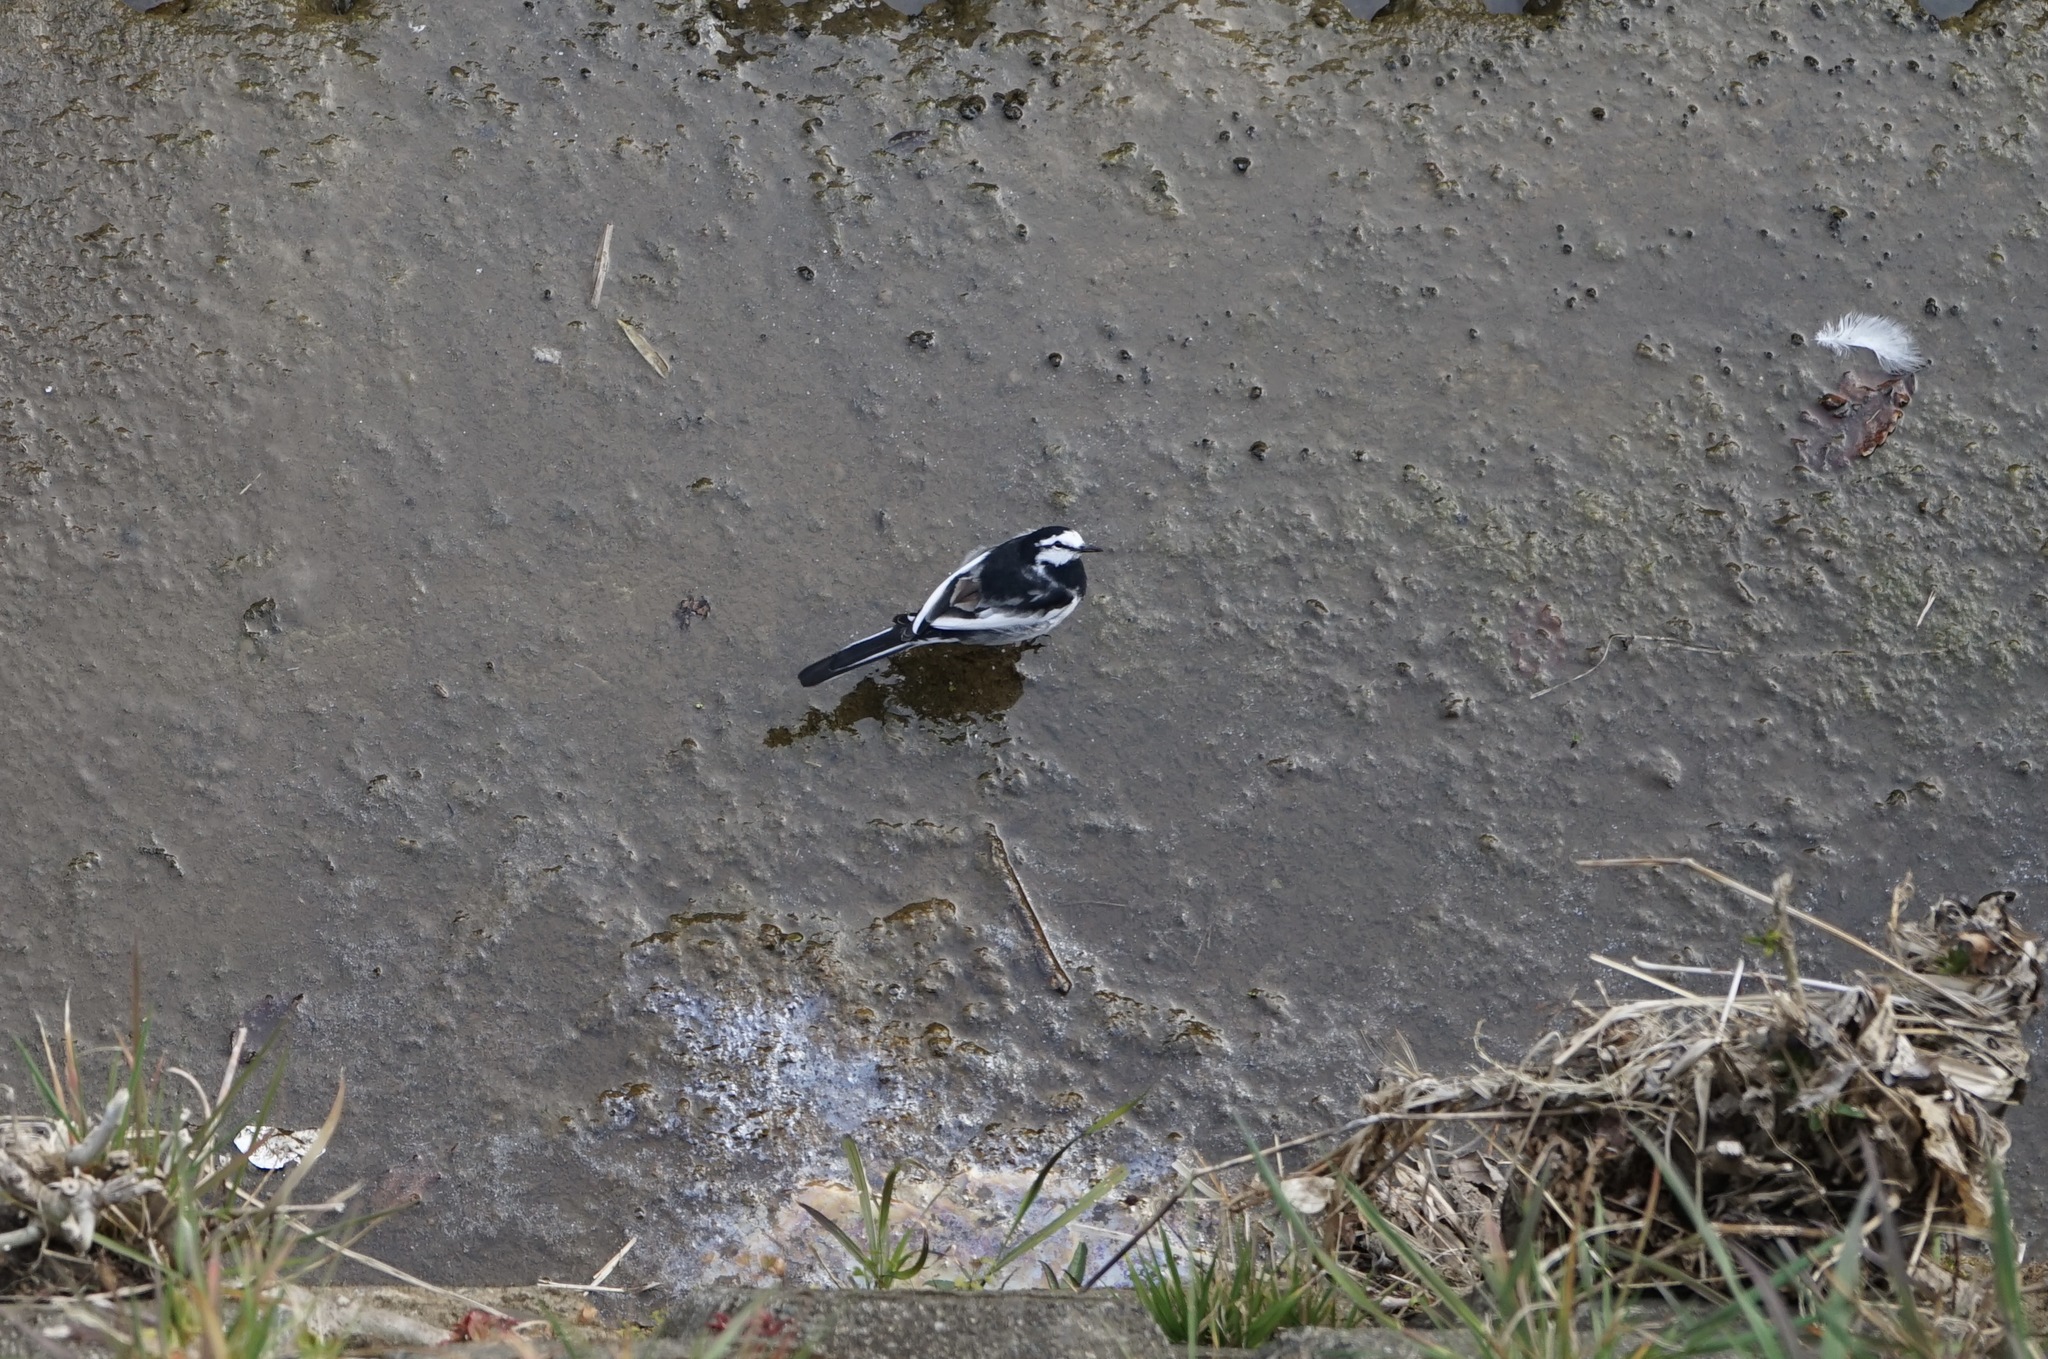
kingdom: Animalia
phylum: Chordata
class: Aves
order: Passeriformes
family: Motacillidae
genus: Motacilla
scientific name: Motacilla alba
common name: White wagtail
